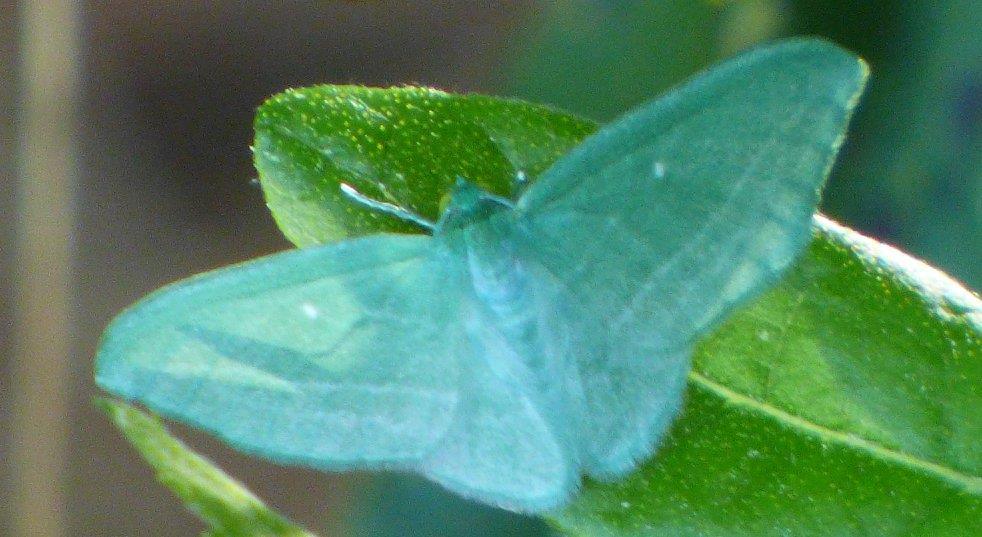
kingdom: Animalia
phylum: Arthropoda
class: Insecta
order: Lepidoptera
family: Geometridae
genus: Dyspteris
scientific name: Dyspteris abortivaria
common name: Bad-wing
